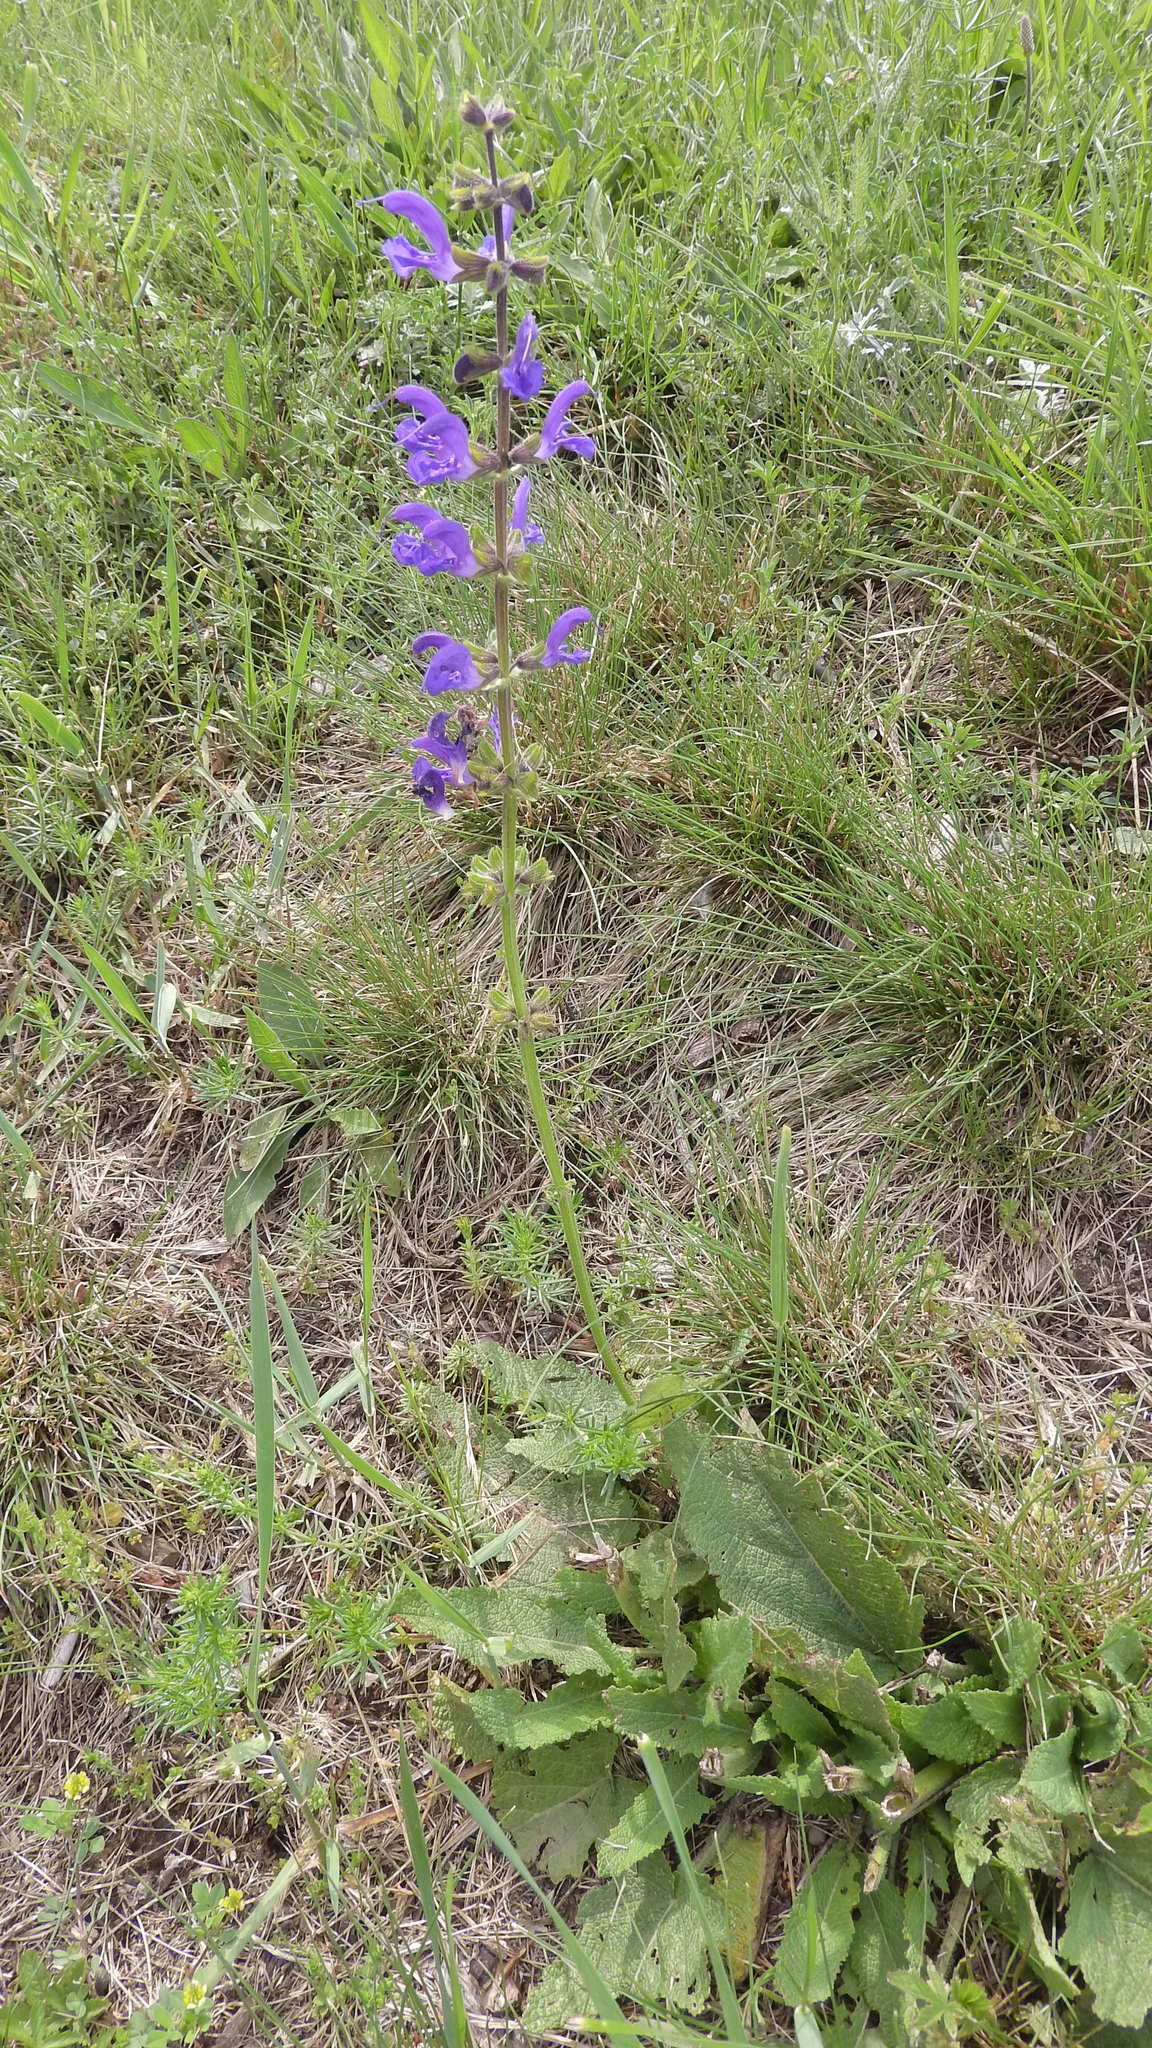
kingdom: Plantae
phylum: Tracheophyta
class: Magnoliopsida
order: Lamiales
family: Lamiaceae
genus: Salvia
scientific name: Salvia pratensis
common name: Meadow sage
